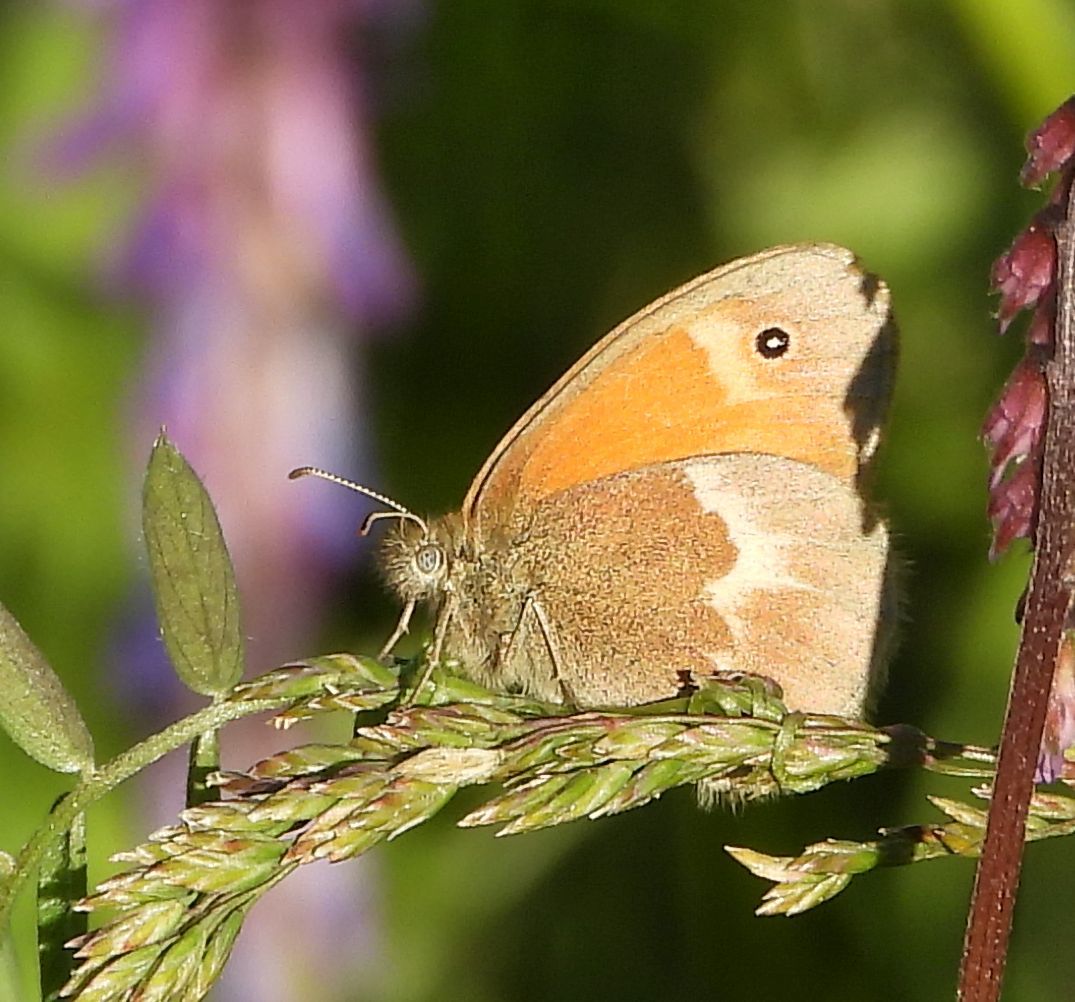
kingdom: Animalia
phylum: Arthropoda
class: Insecta
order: Lepidoptera
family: Nymphalidae
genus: Coenonympha
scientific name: Coenonympha california
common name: Common ringlet
